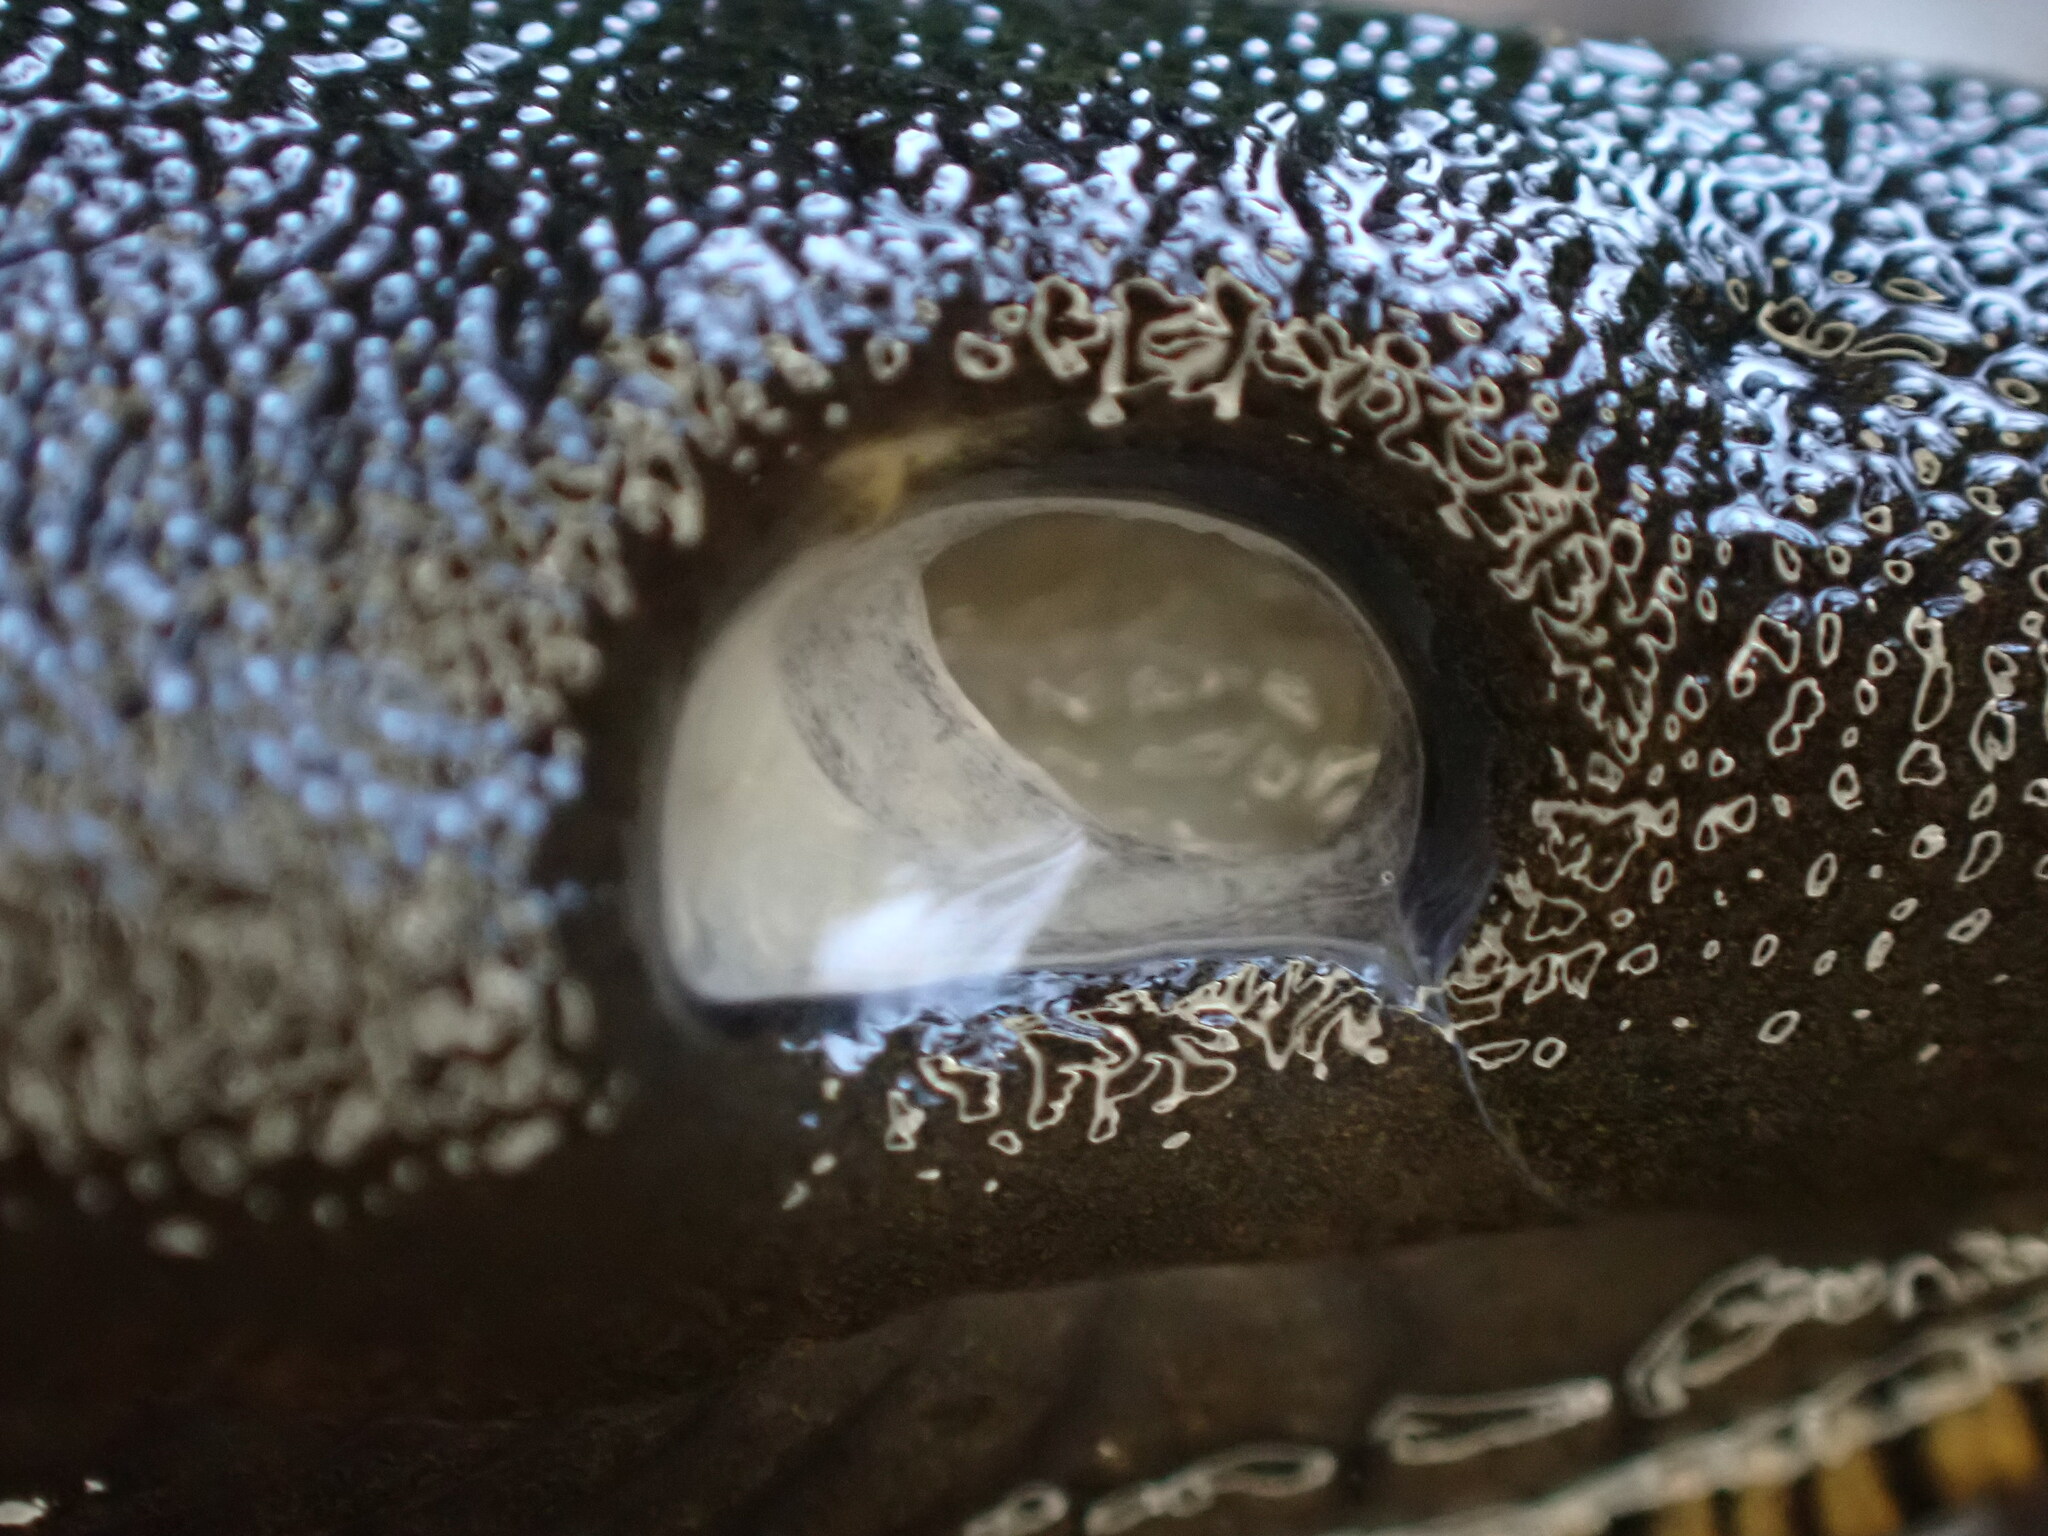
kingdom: Animalia
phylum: Mollusca
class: Gastropoda
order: Stylommatophora
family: Arionidae
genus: Arion
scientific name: Arion
